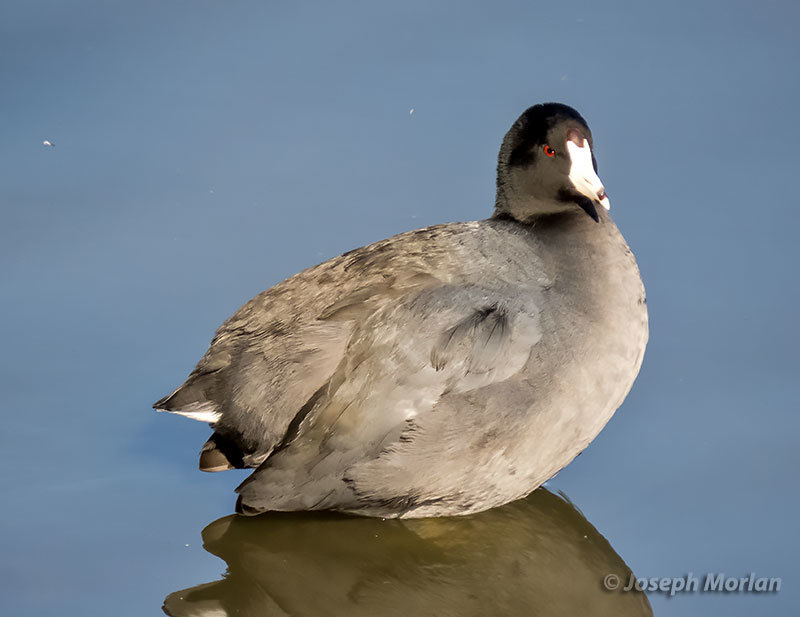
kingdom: Animalia
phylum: Chordata
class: Aves
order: Gruiformes
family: Rallidae
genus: Fulica
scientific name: Fulica americana
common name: American coot
